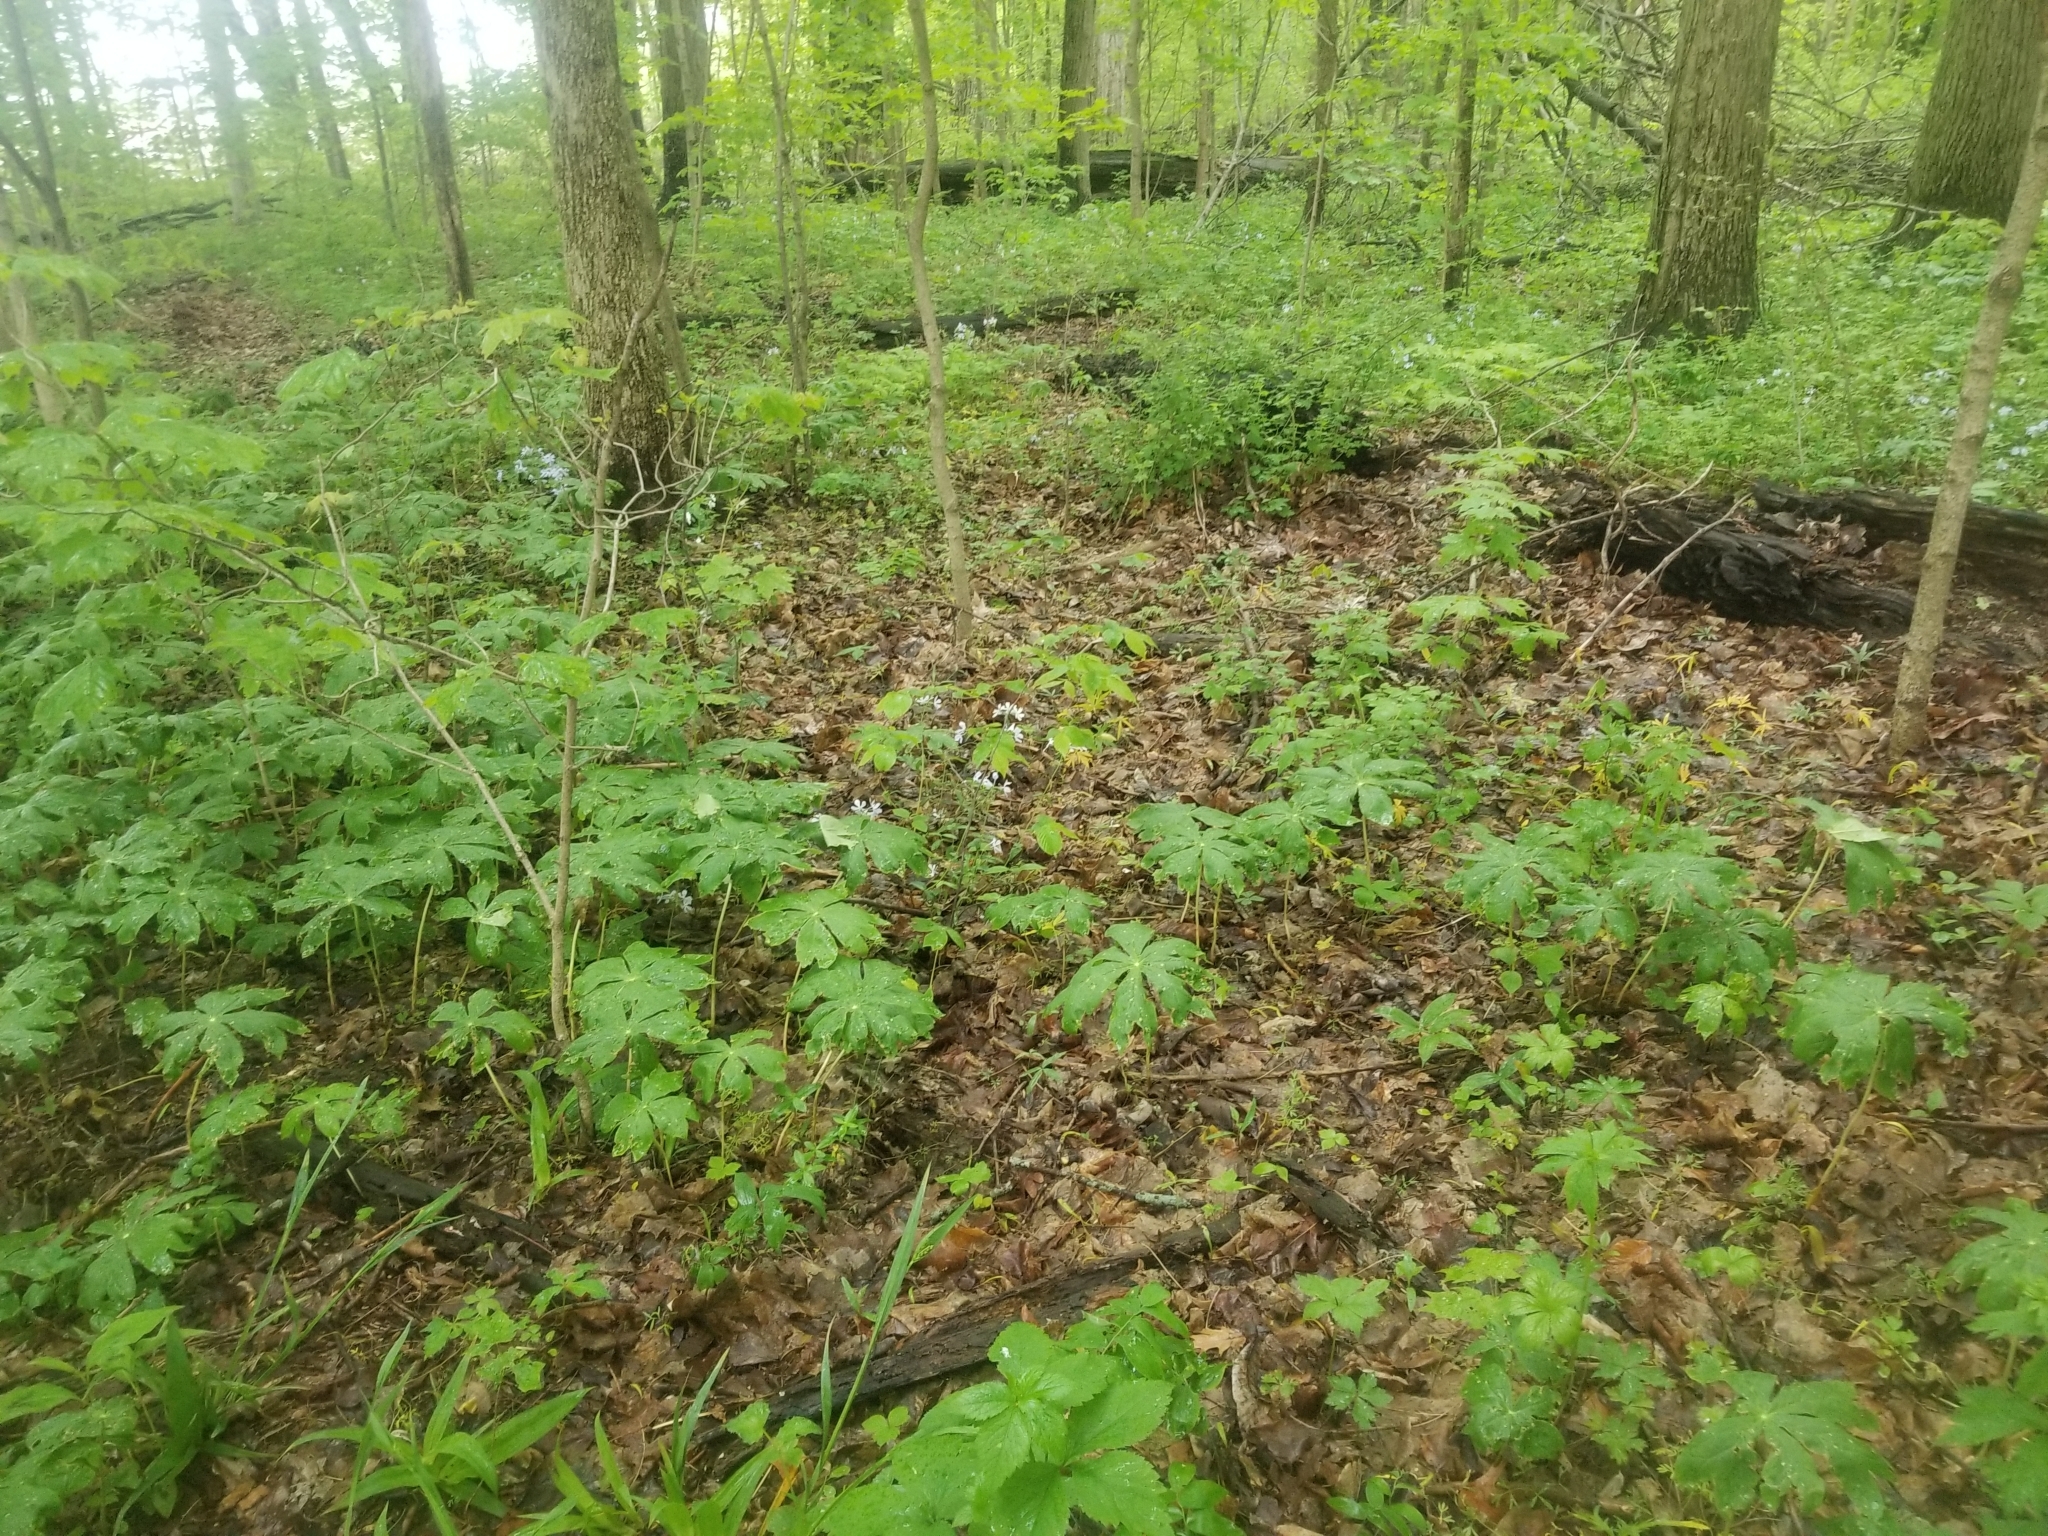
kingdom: Plantae
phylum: Tracheophyta
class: Magnoliopsida
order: Ranunculales
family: Berberidaceae
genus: Podophyllum
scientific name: Podophyllum peltatum
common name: Wild mandrake
